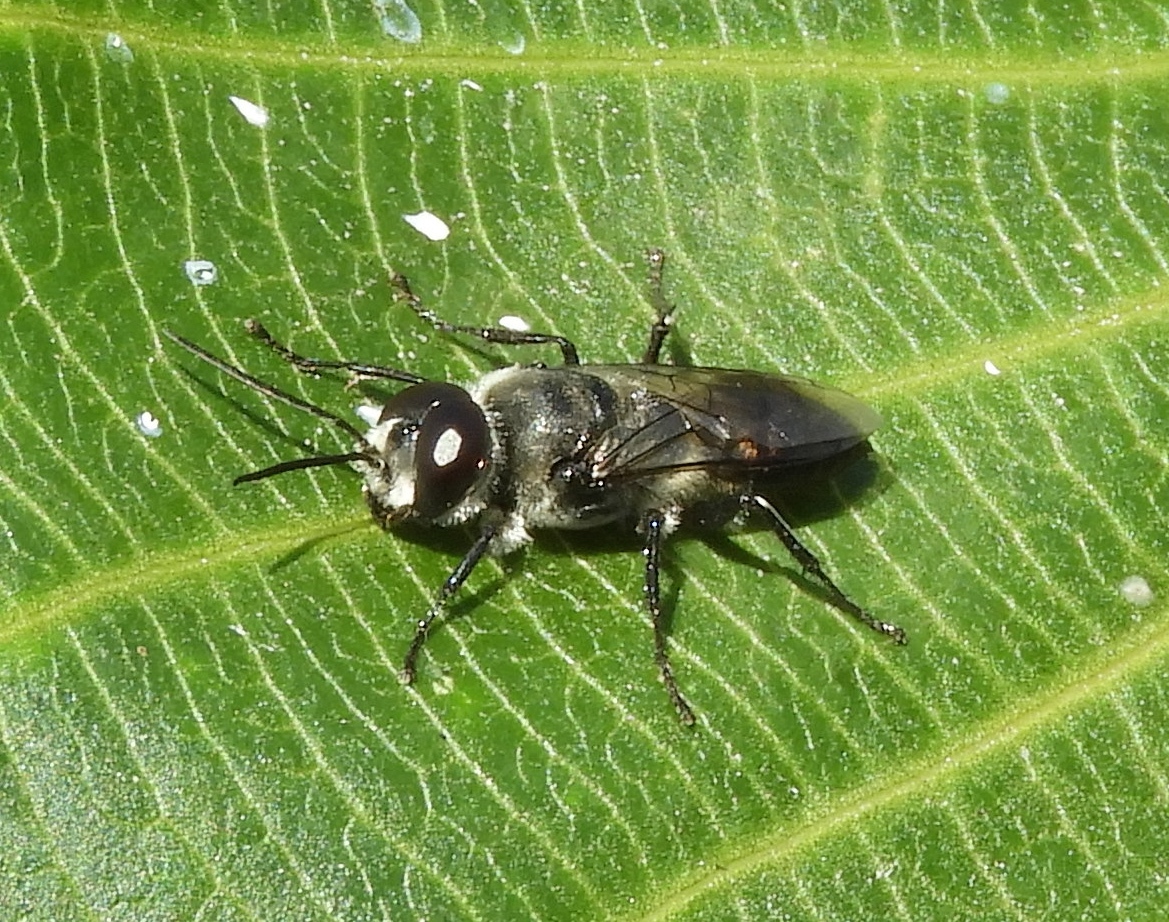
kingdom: Animalia
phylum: Arthropoda
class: Insecta
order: Hymenoptera
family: Crabronidae
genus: Astata
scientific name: Astata
